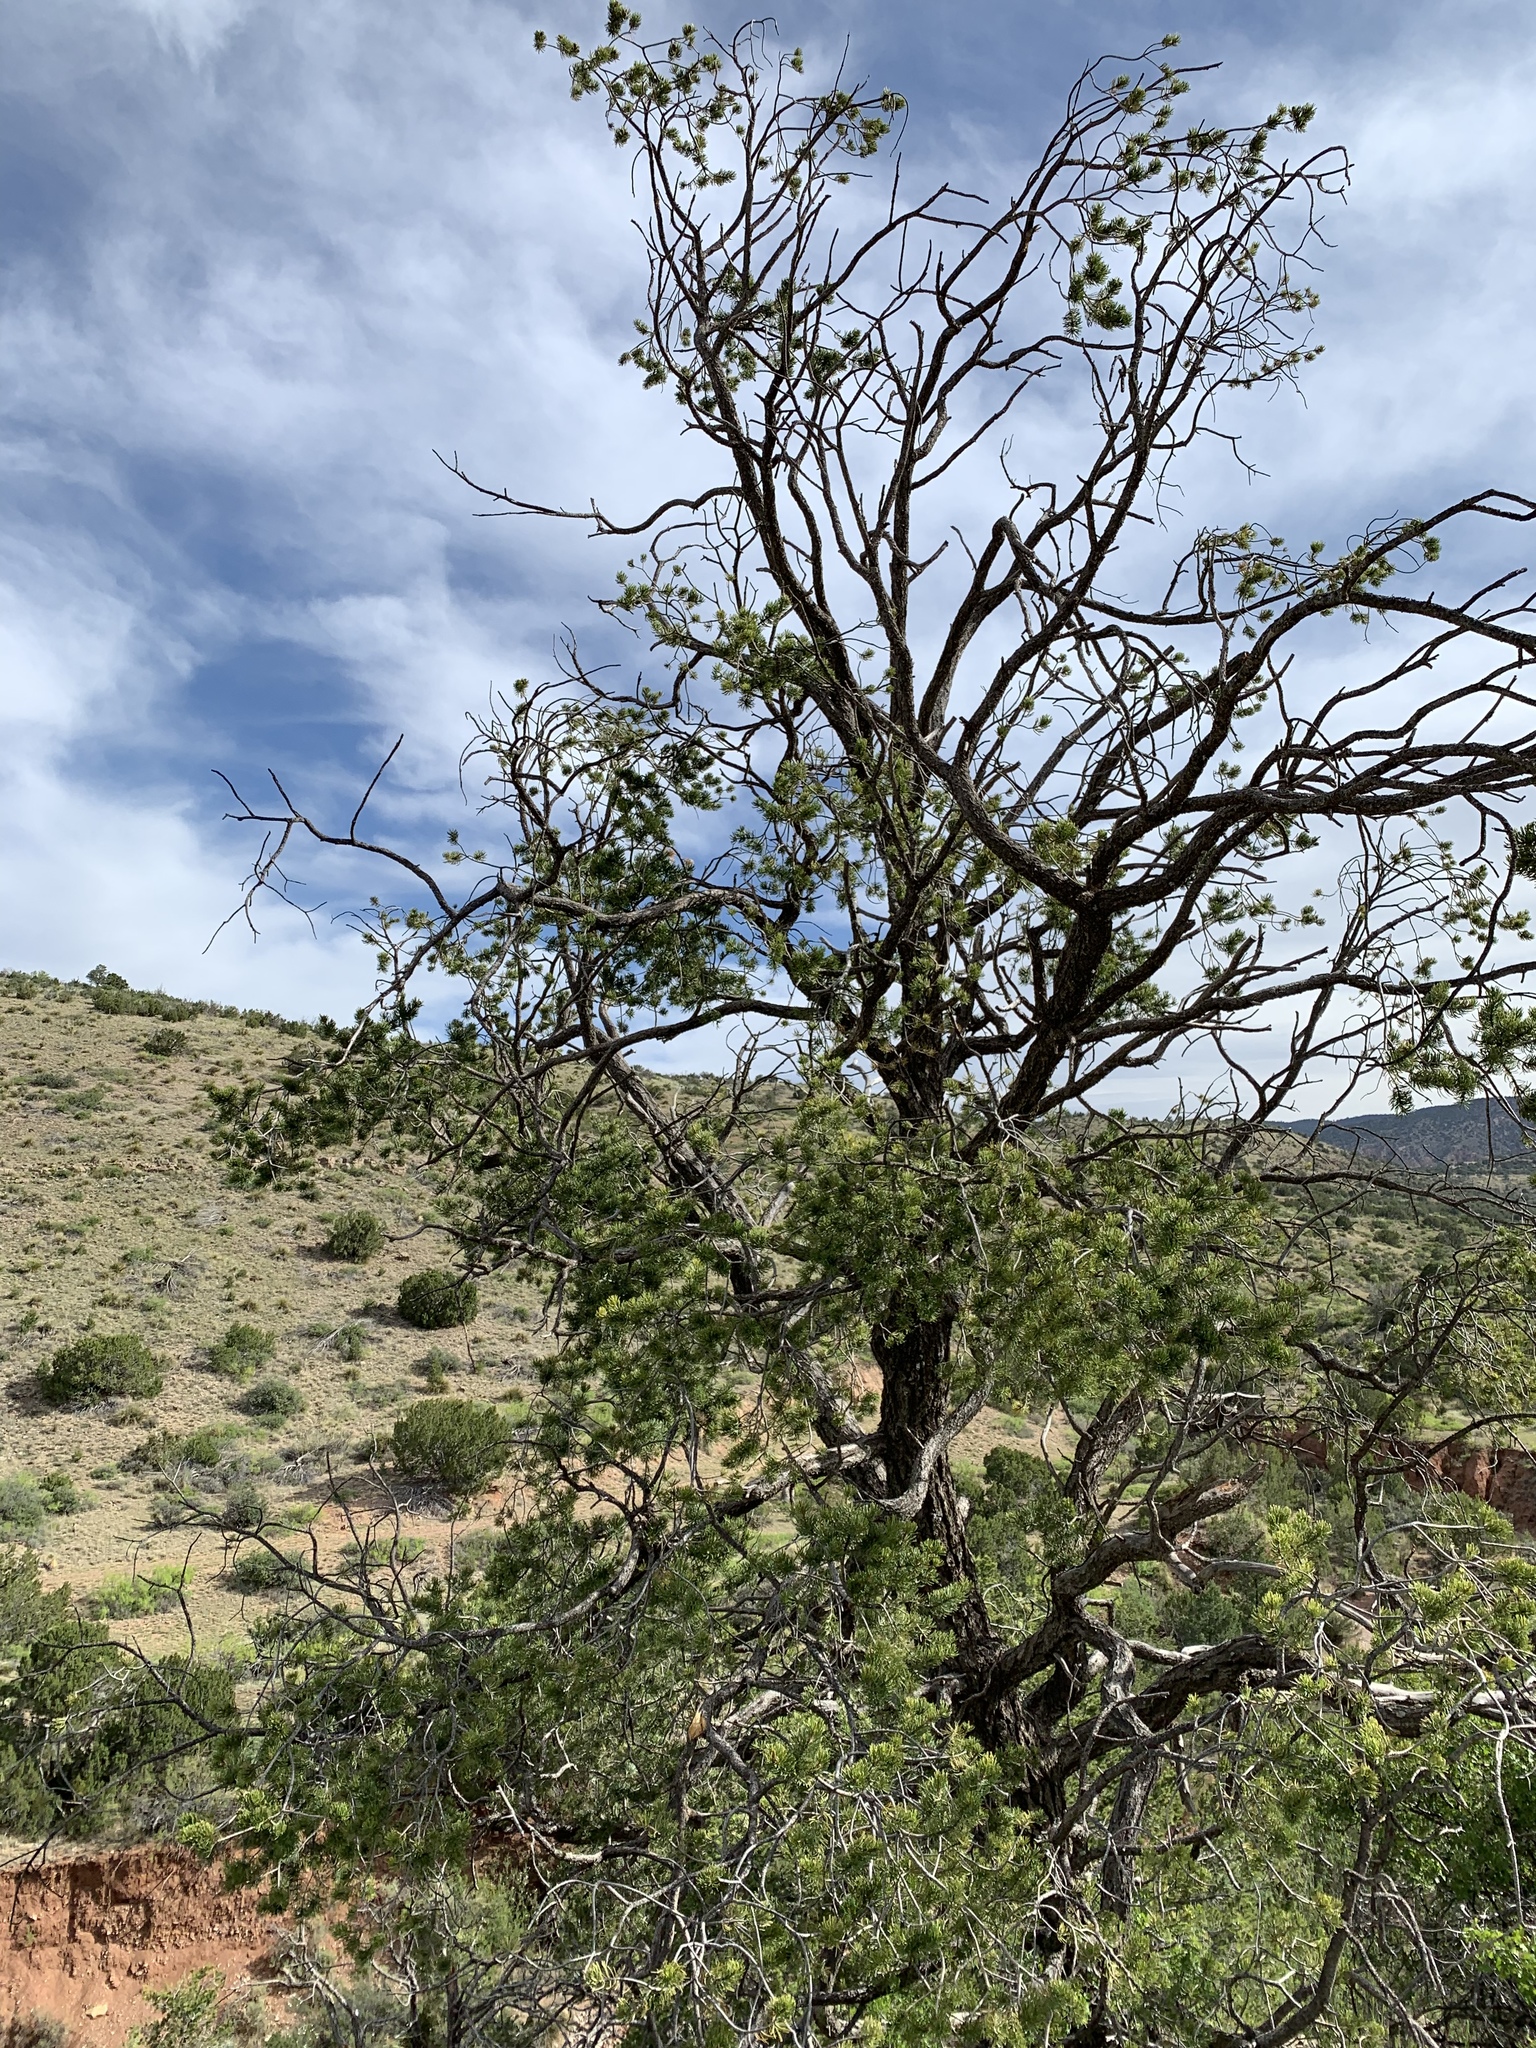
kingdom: Plantae
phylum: Tracheophyta
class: Pinopsida
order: Pinales
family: Pinaceae
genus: Pinus
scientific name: Pinus edulis
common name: Colorado pinyon
